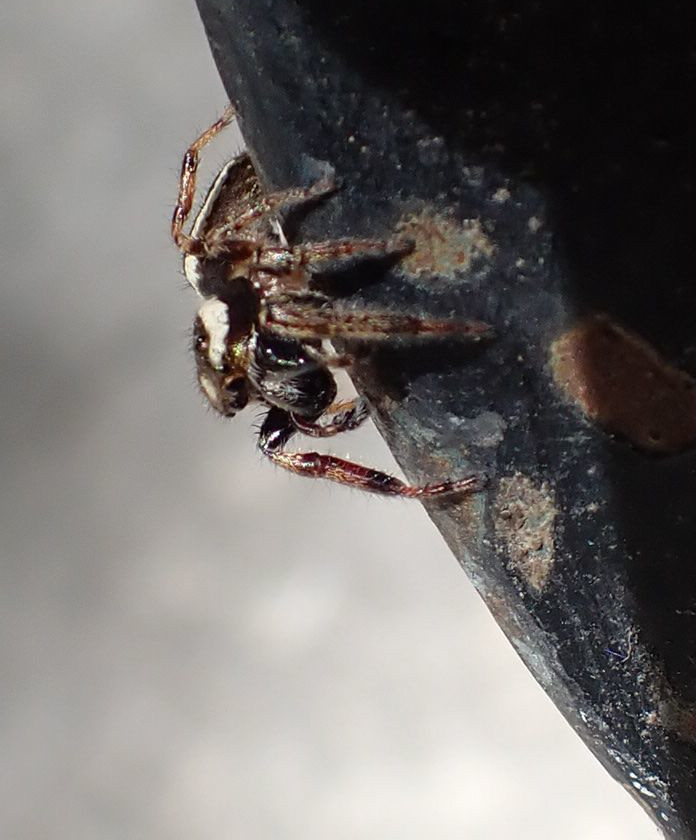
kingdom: Animalia
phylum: Arthropoda
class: Arachnida
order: Araneae
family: Salticidae
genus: Eris
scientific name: Eris militaris
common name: Bronze jumper
